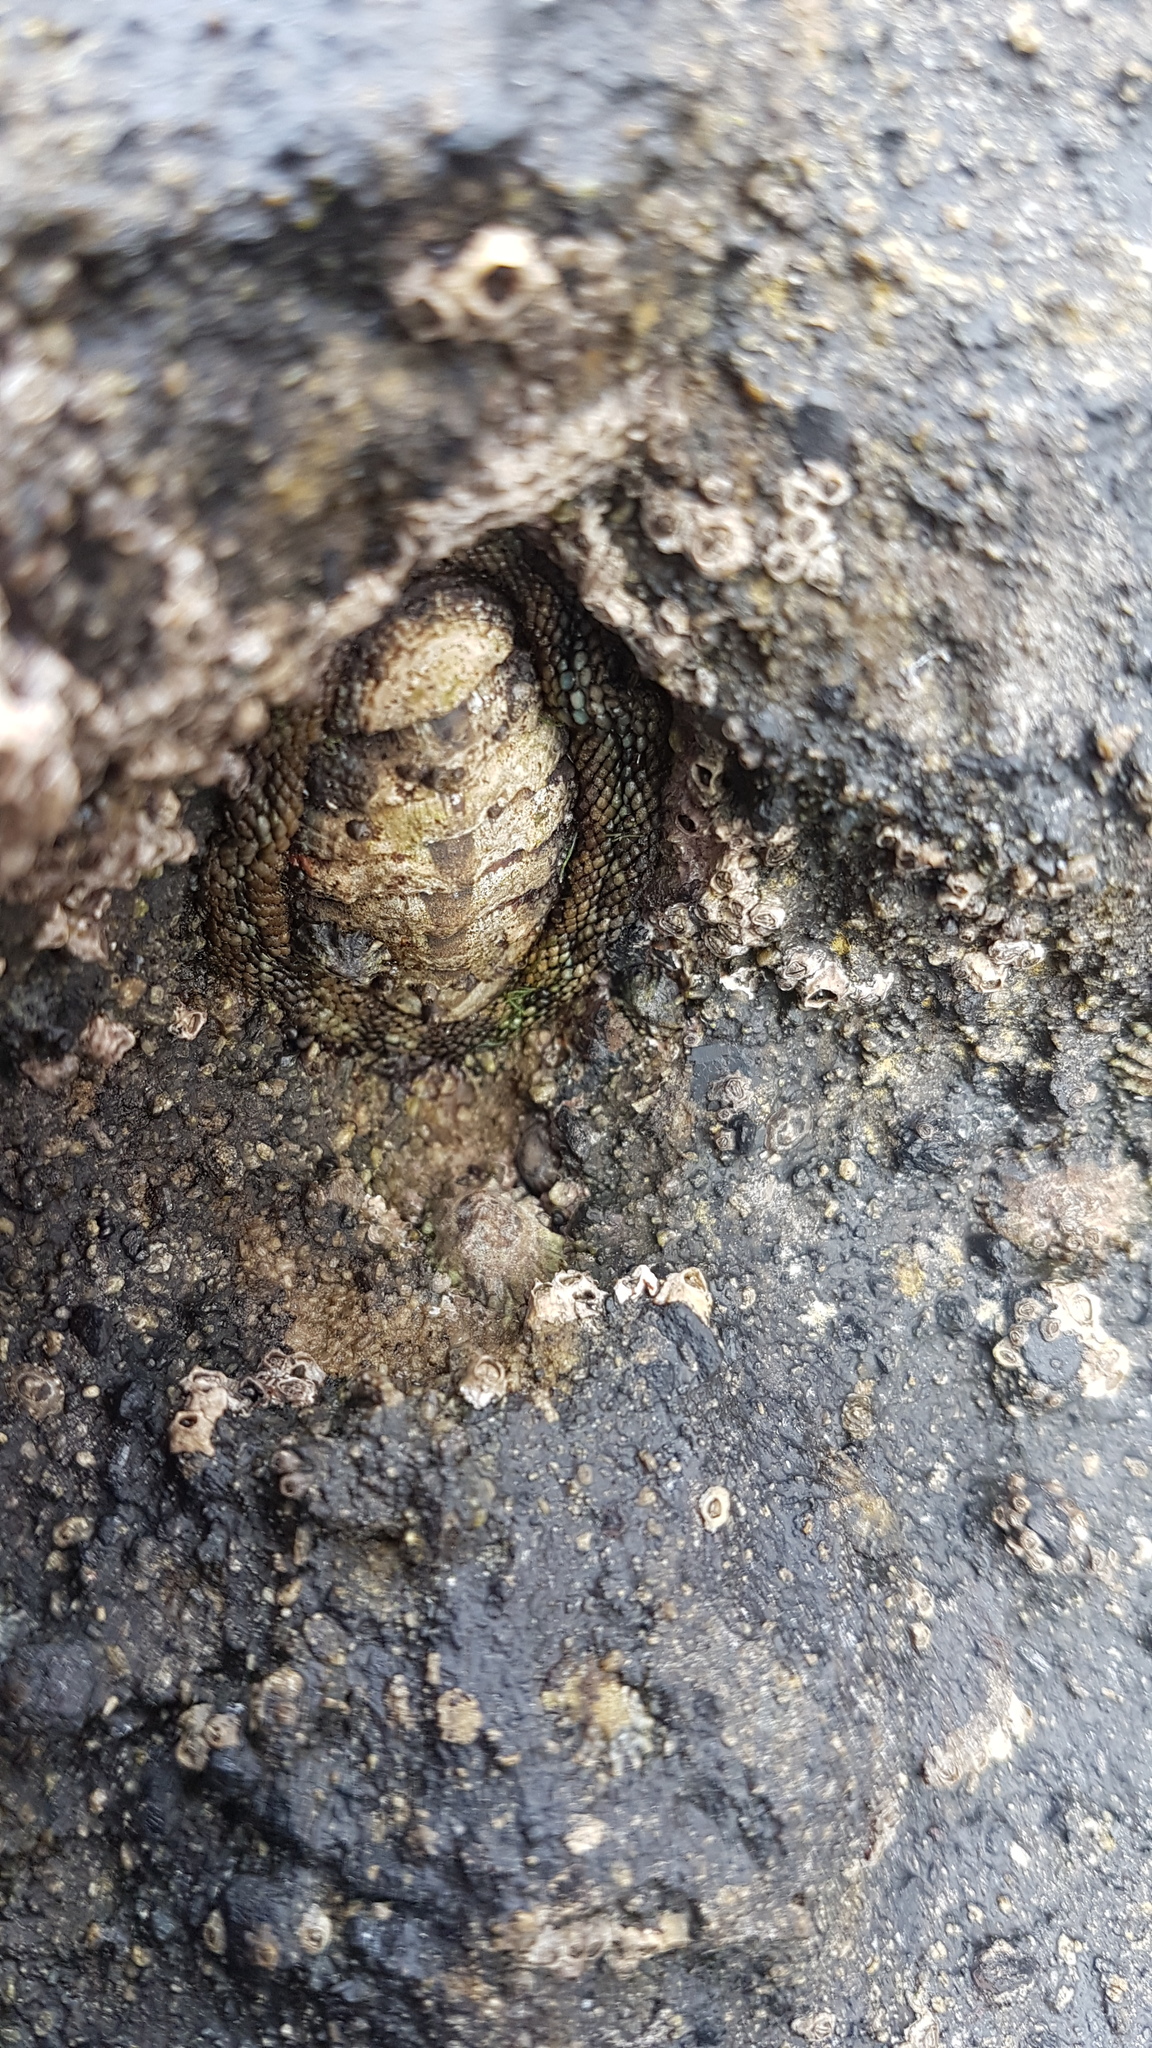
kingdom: Animalia
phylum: Mollusca
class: Polyplacophora
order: Chitonida
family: Chitonidae
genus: Sypharochiton
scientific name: Sypharochiton pelliserpentis
